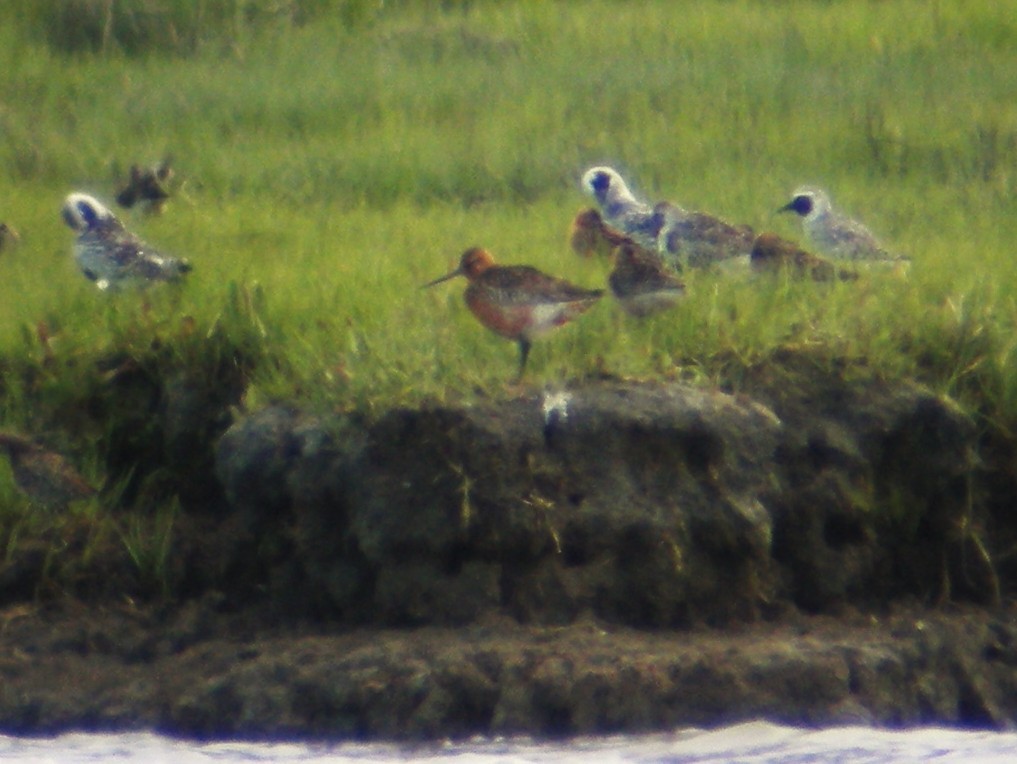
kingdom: Animalia
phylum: Chordata
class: Aves
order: Charadriiformes
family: Scolopacidae
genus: Limosa
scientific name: Limosa lapponica
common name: Bar-tailed godwit
